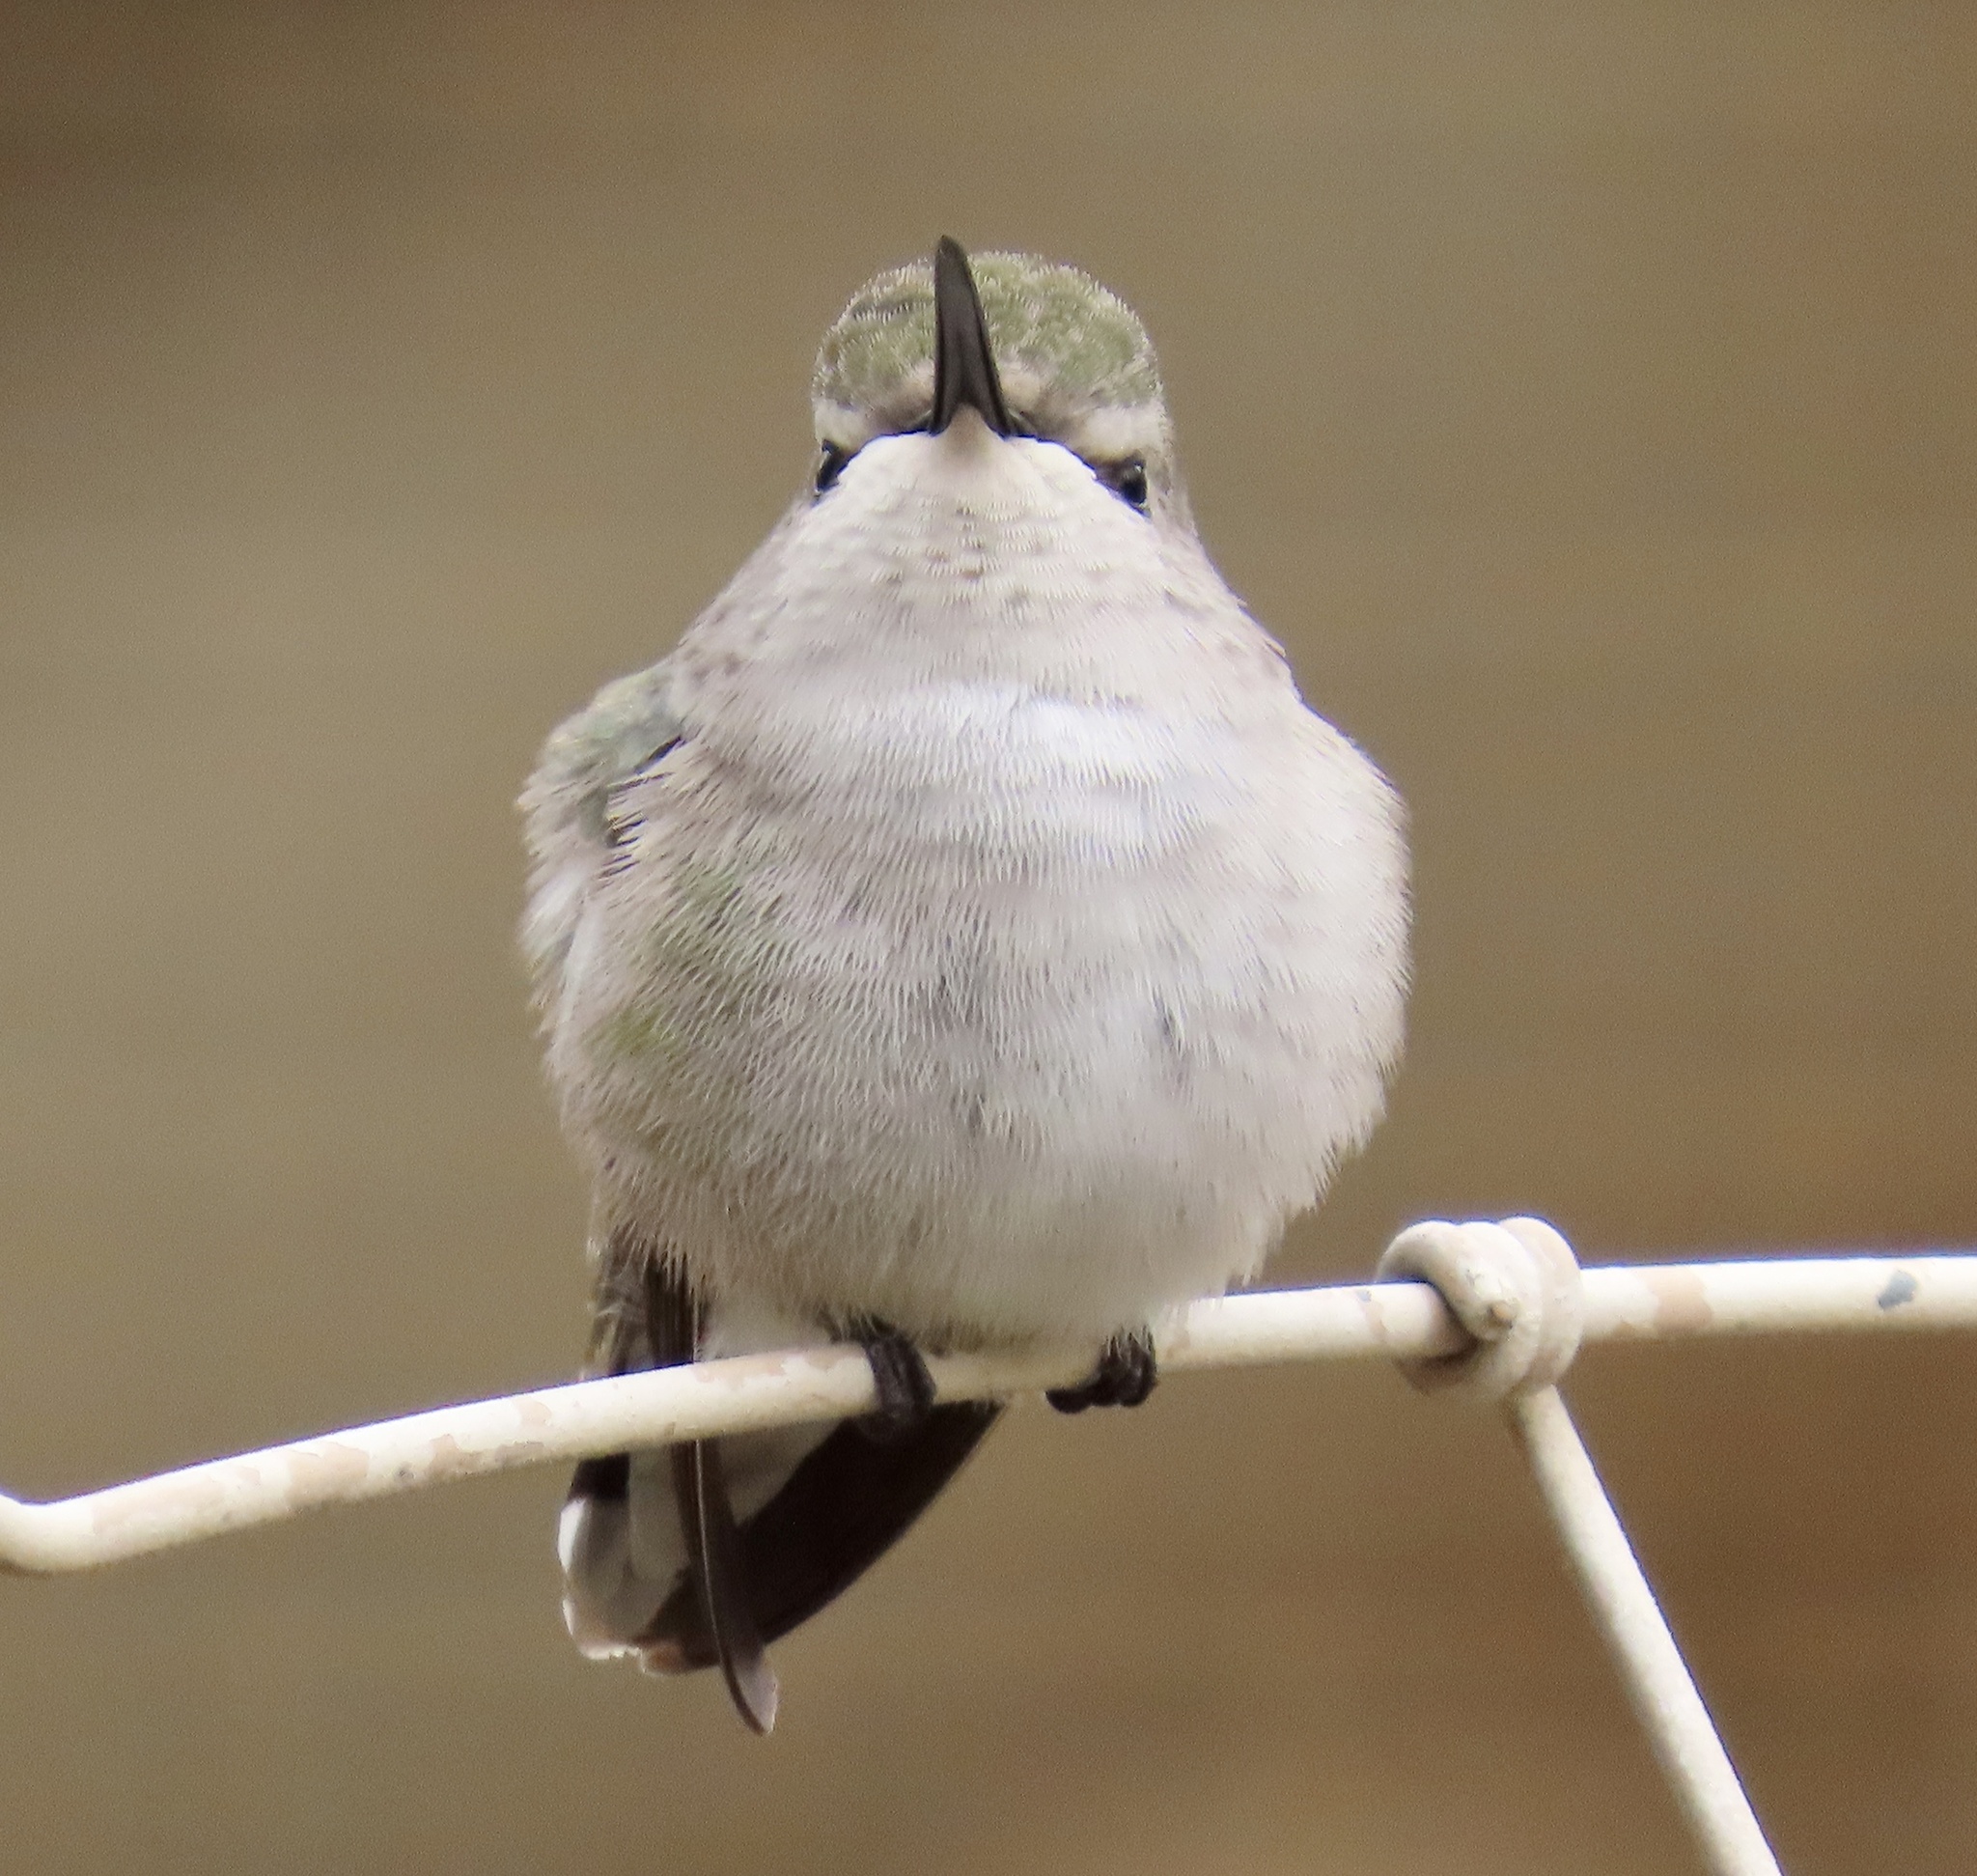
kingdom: Animalia
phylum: Chordata
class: Aves
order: Apodiformes
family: Trochilidae
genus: Calypte
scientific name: Calypte costae
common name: Costa's hummingbird
